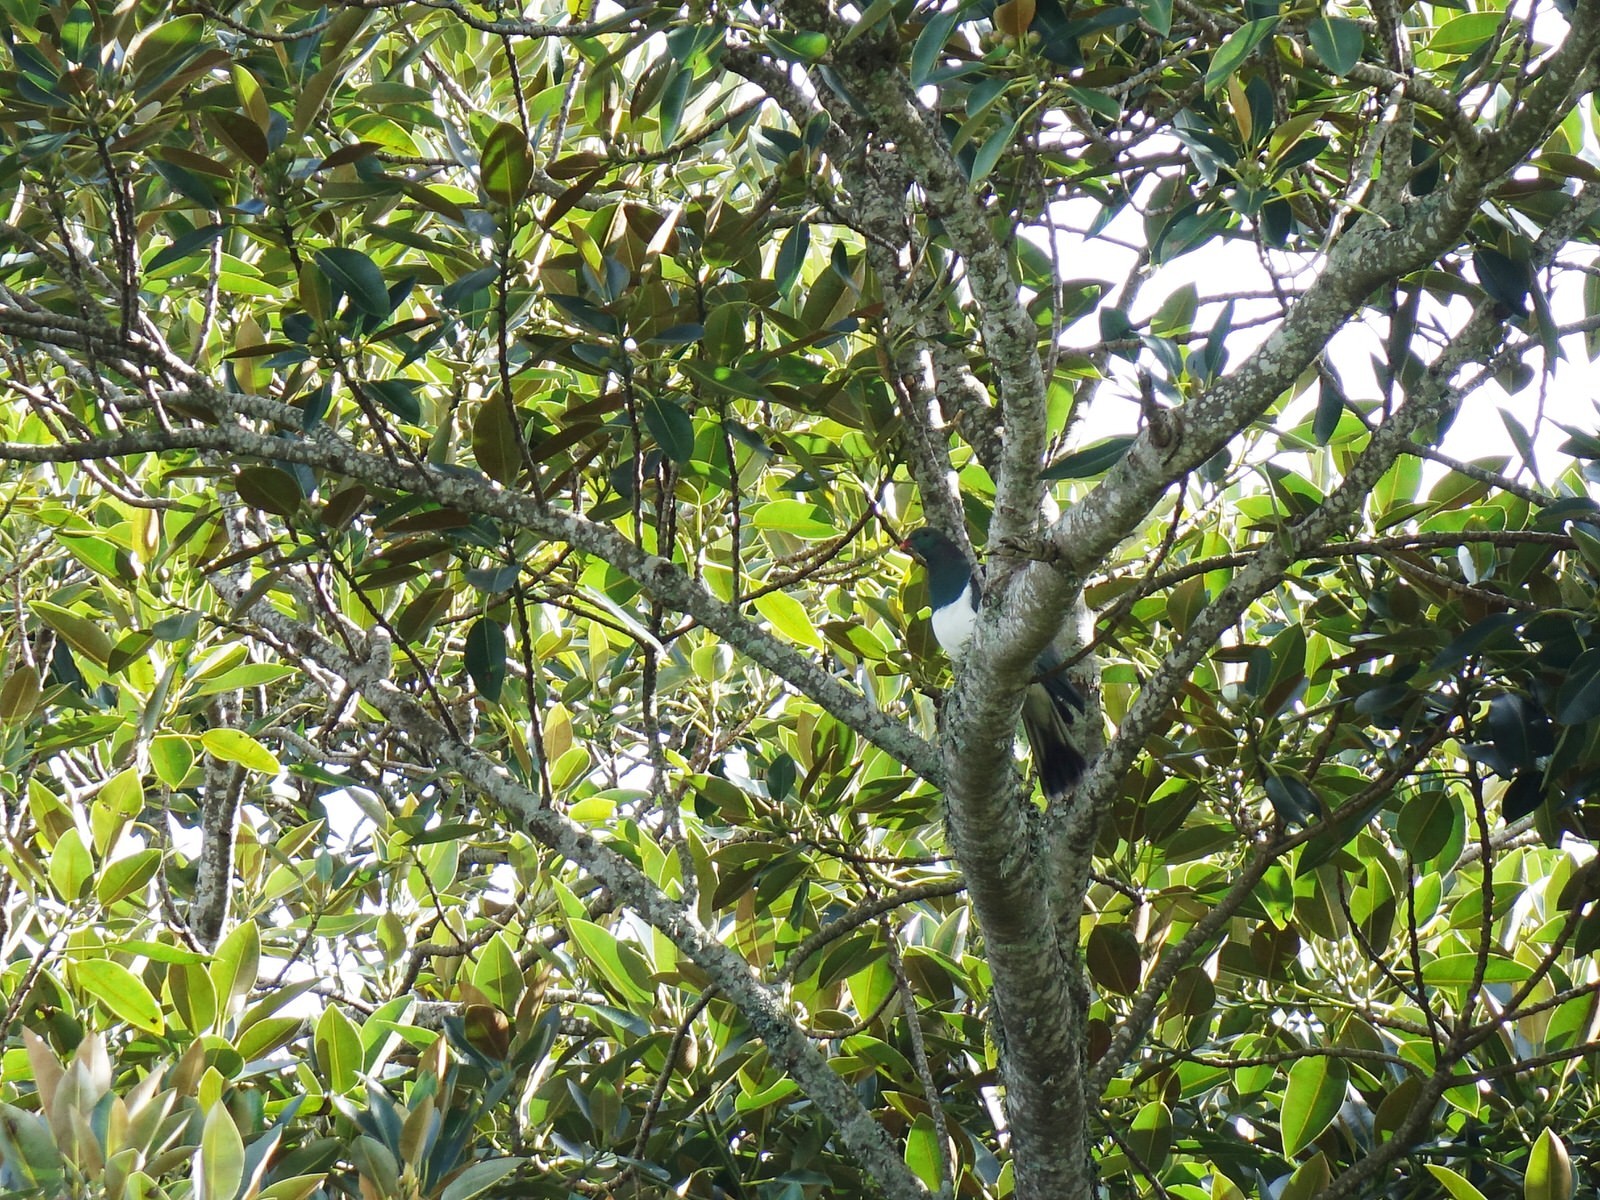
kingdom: Animalia
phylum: Chordata
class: Aves
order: Columbiformes
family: Columbidae
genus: Hemiphaga
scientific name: Hemiphaga novaeseelandiae
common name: New zealand pigeon
